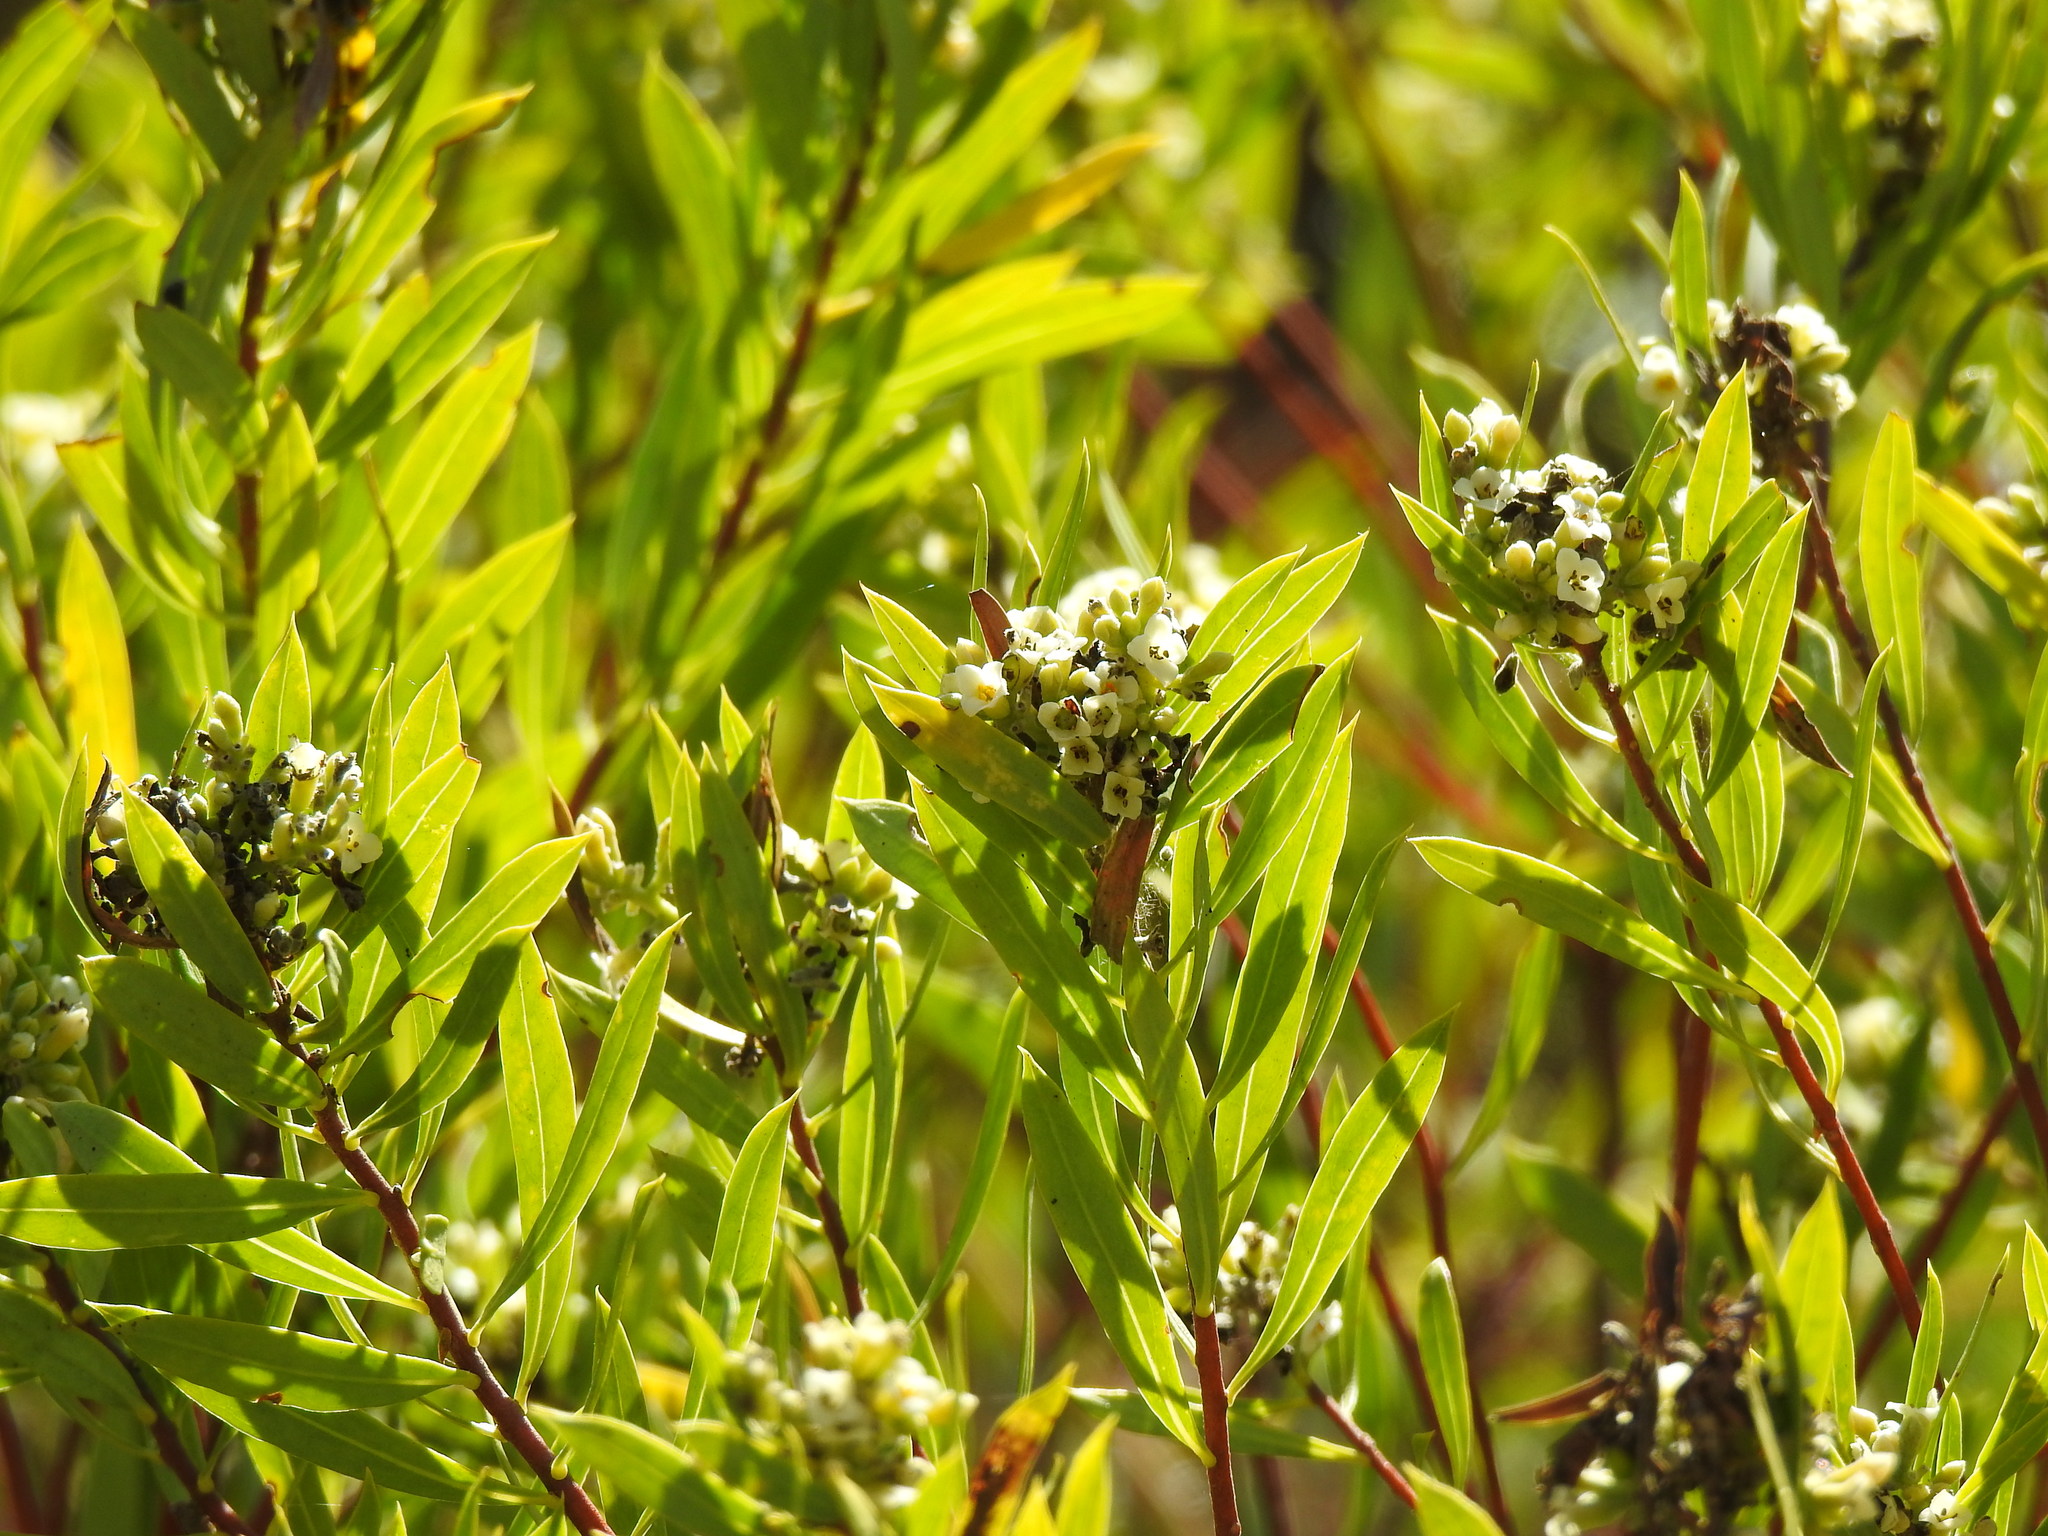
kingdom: Plantae
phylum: Tracheophyta
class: Magnoliopsida
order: Malvales
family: Thymelaeaceae
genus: Daphne
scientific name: Daphne gnidium
